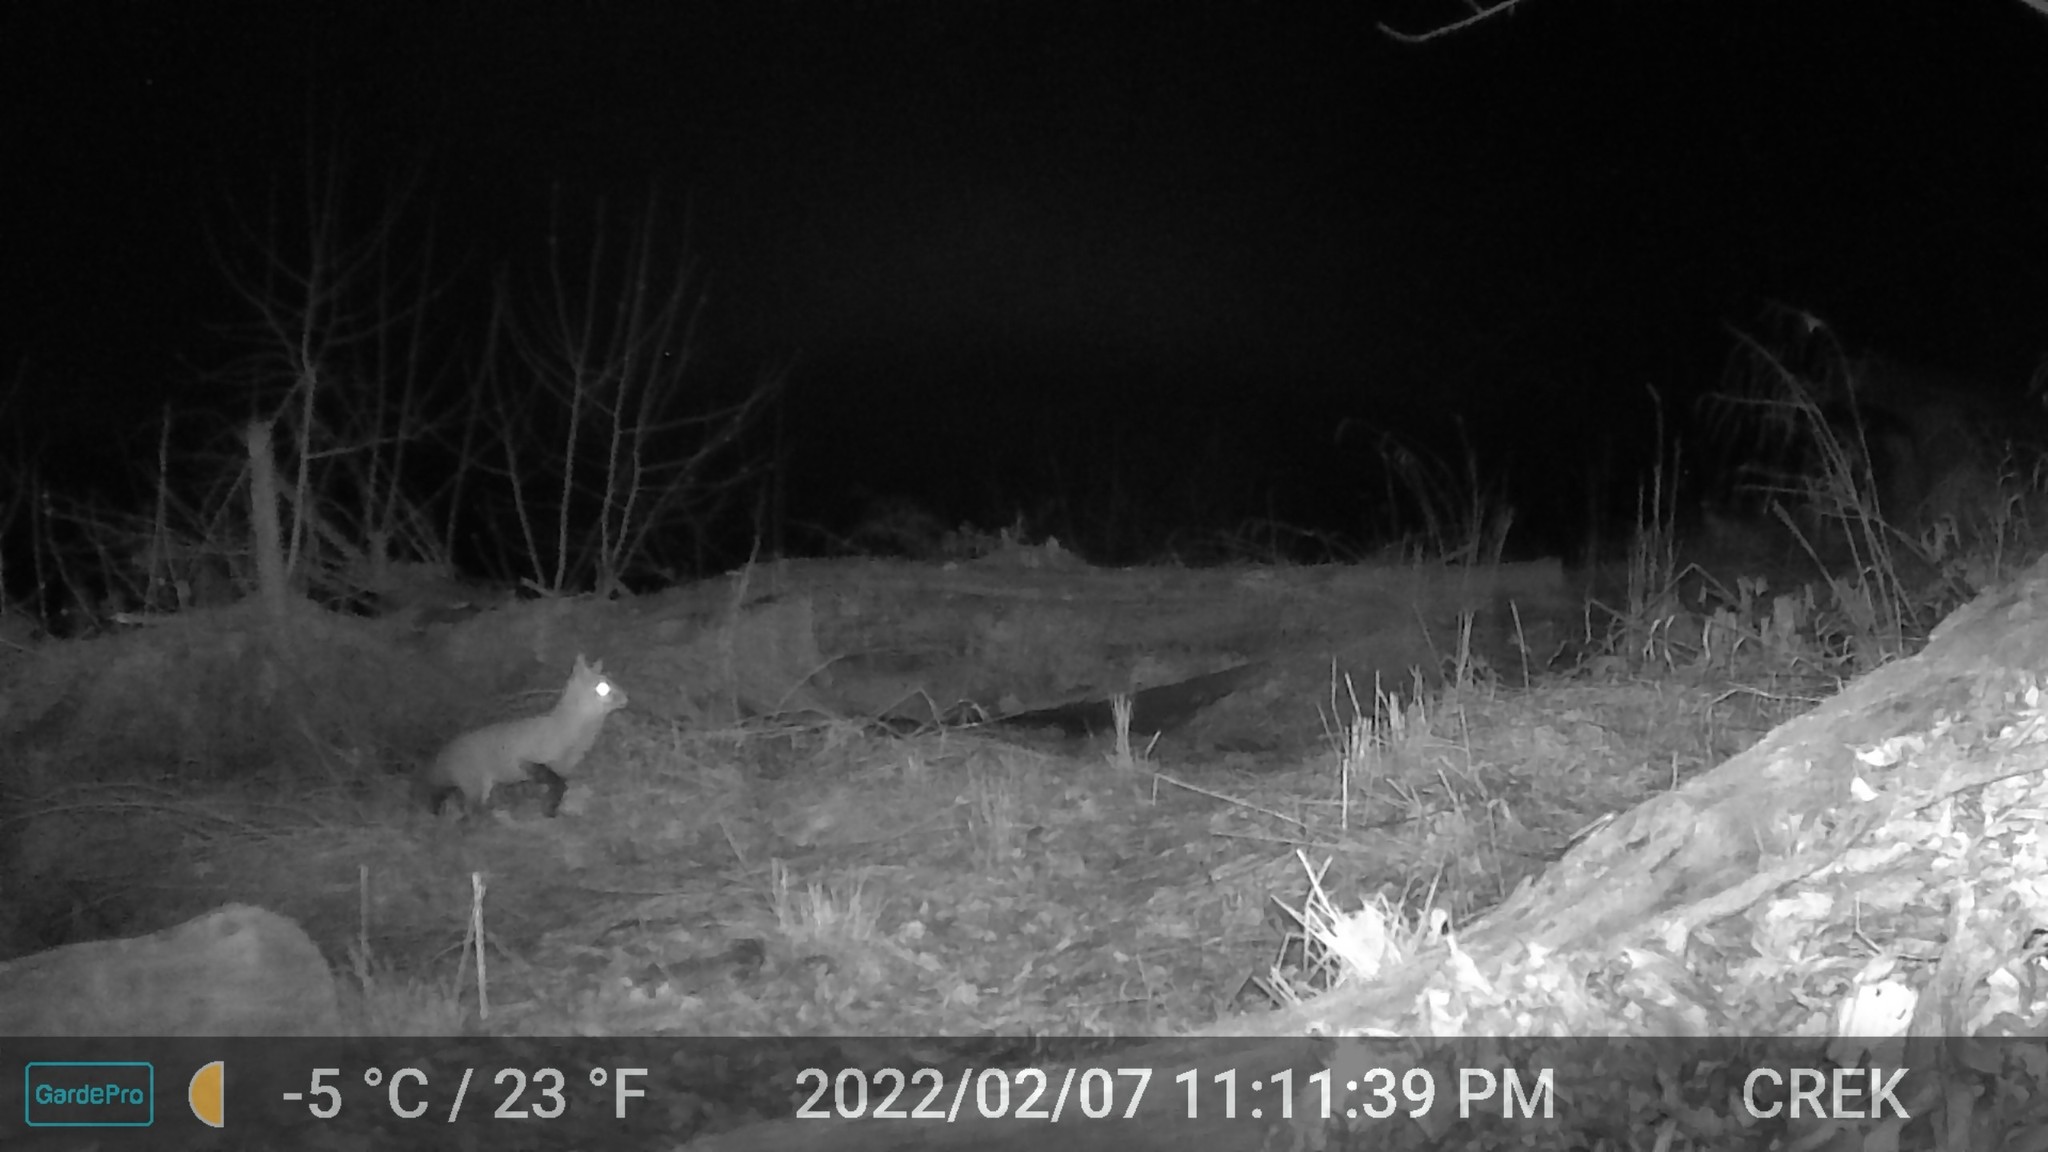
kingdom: Animalia
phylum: Chordata
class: Mammalia
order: Carnivora
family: Canidae
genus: Vulpes
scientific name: Vulpes vulpes
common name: Red fox
